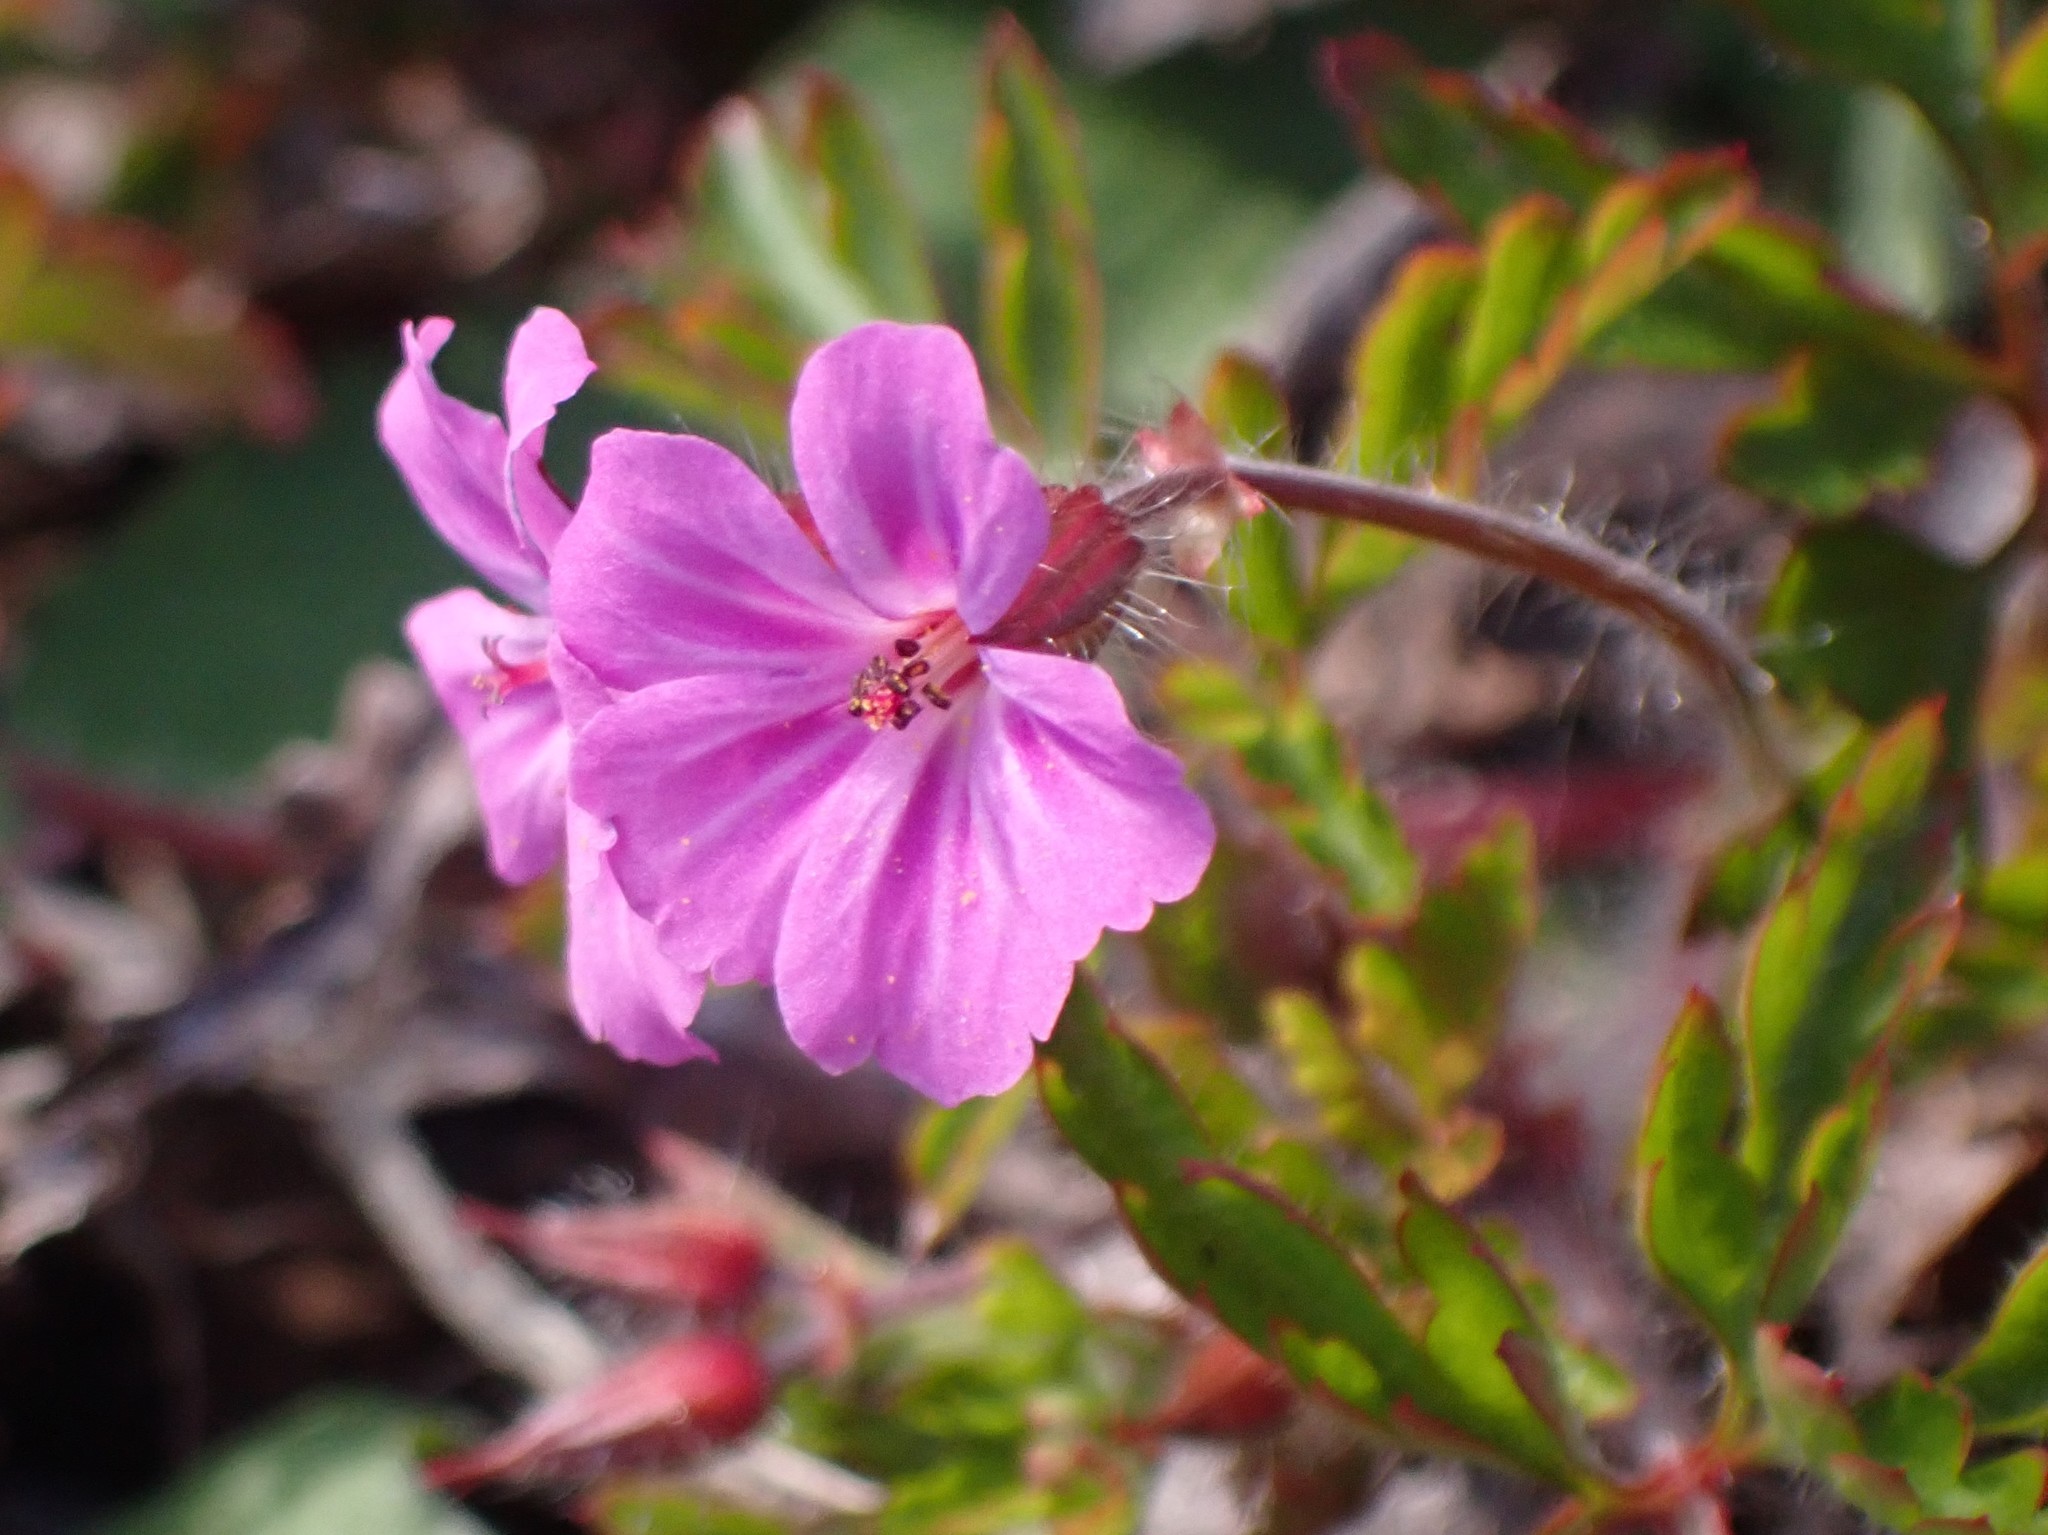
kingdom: Plantae
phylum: Tracheophyta
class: Magnoliopsida
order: Geraniales
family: Geraniaceae
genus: Geranium
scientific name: Geranium yeoi
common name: Greater herb robert
